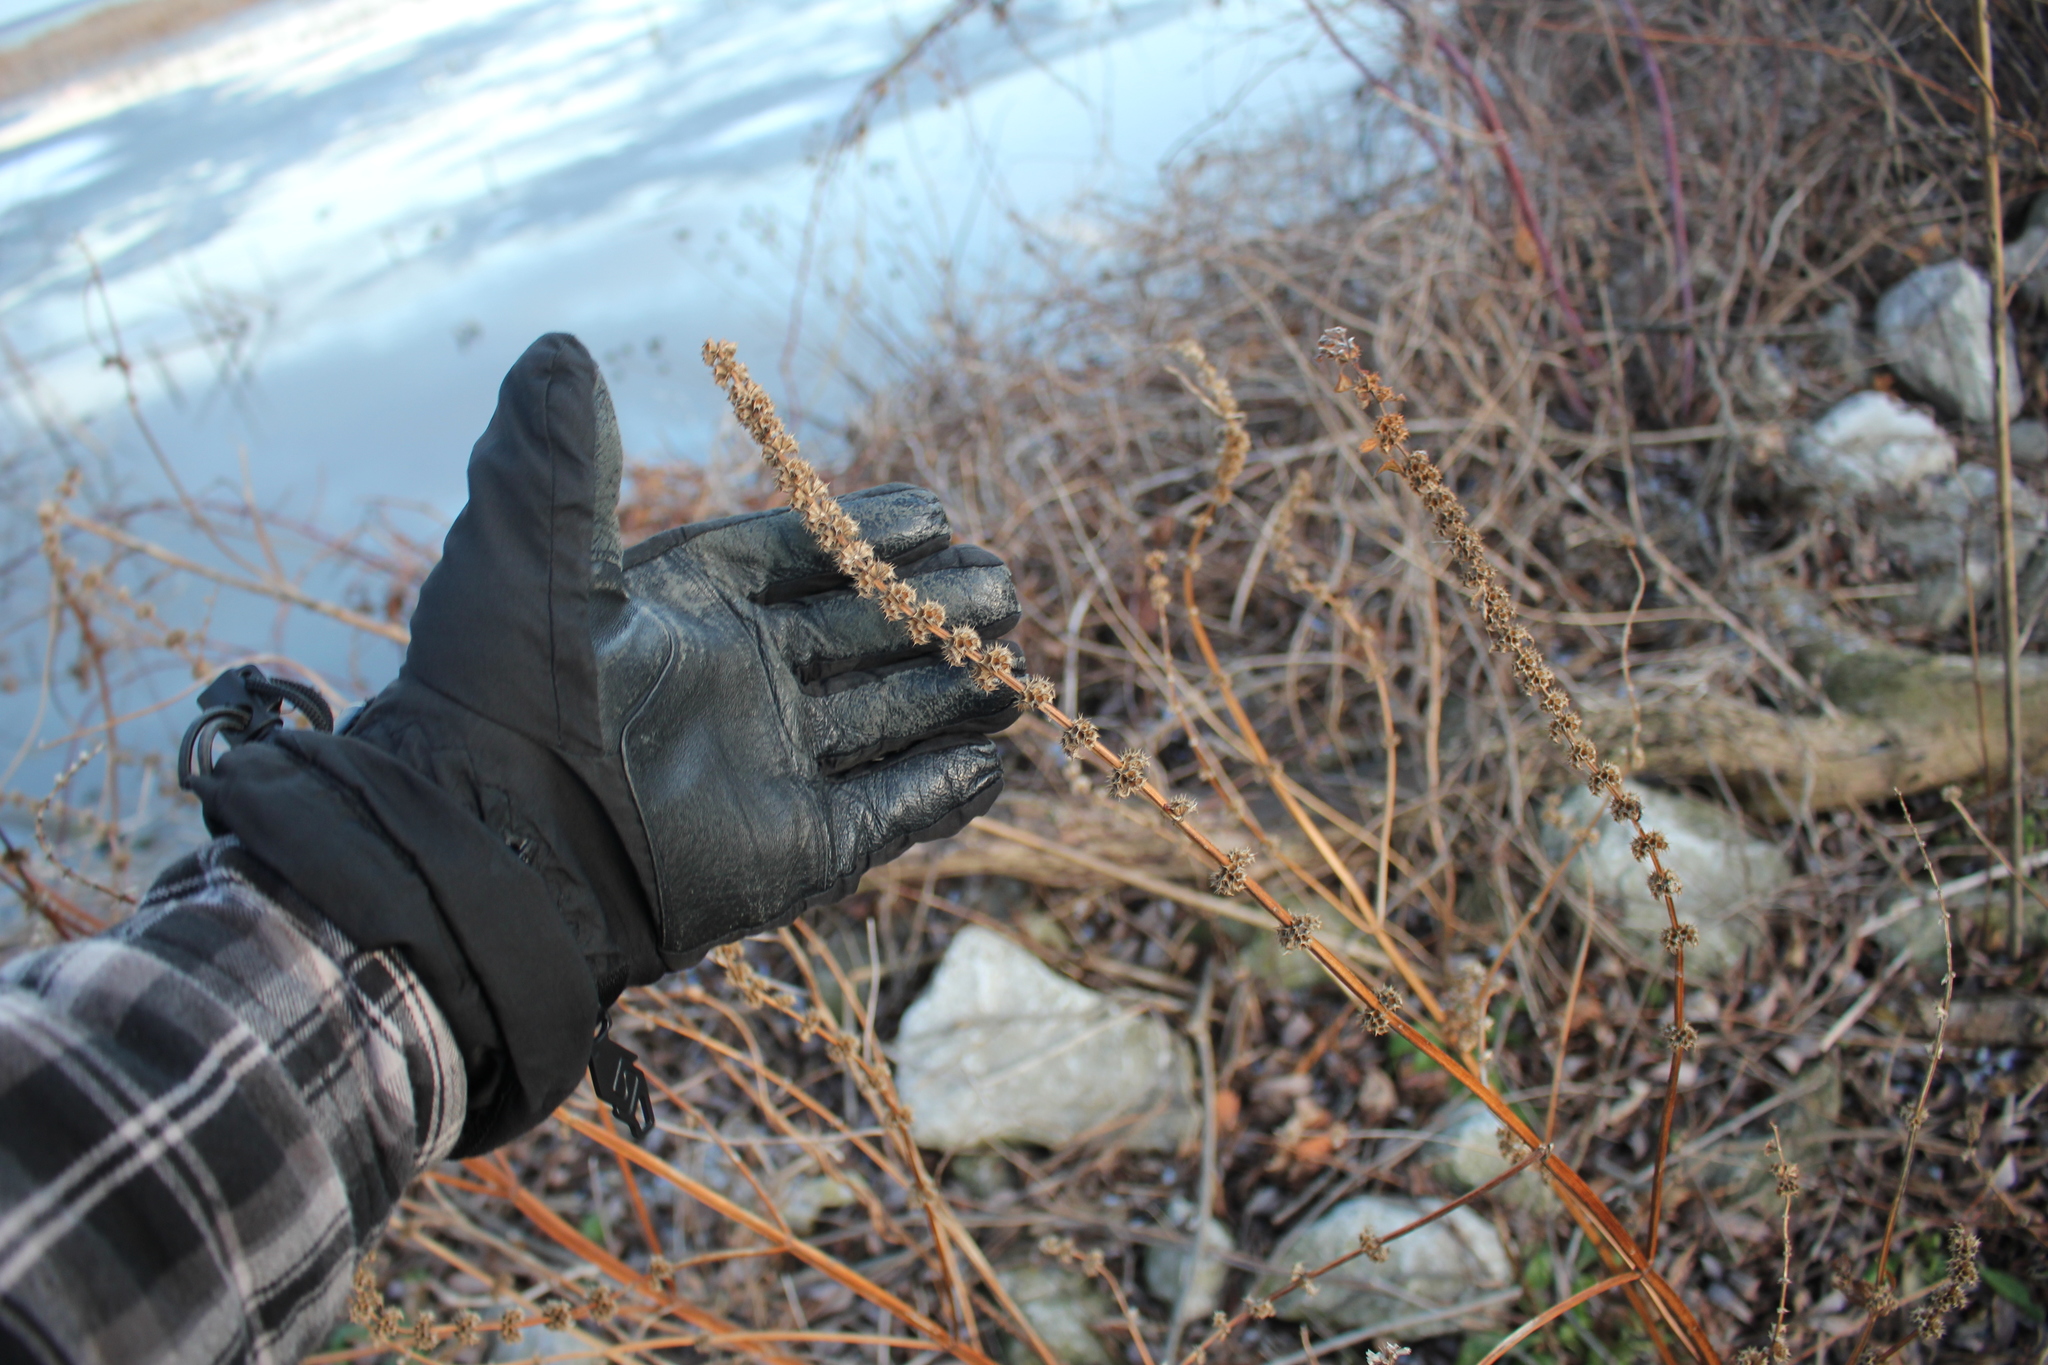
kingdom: Plantae
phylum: Tracheophyta
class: Magnoliopsida
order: Lamiales
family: Lamiaceae
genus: Leonurus
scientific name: Leonurus cardiaca
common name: Motherwort
